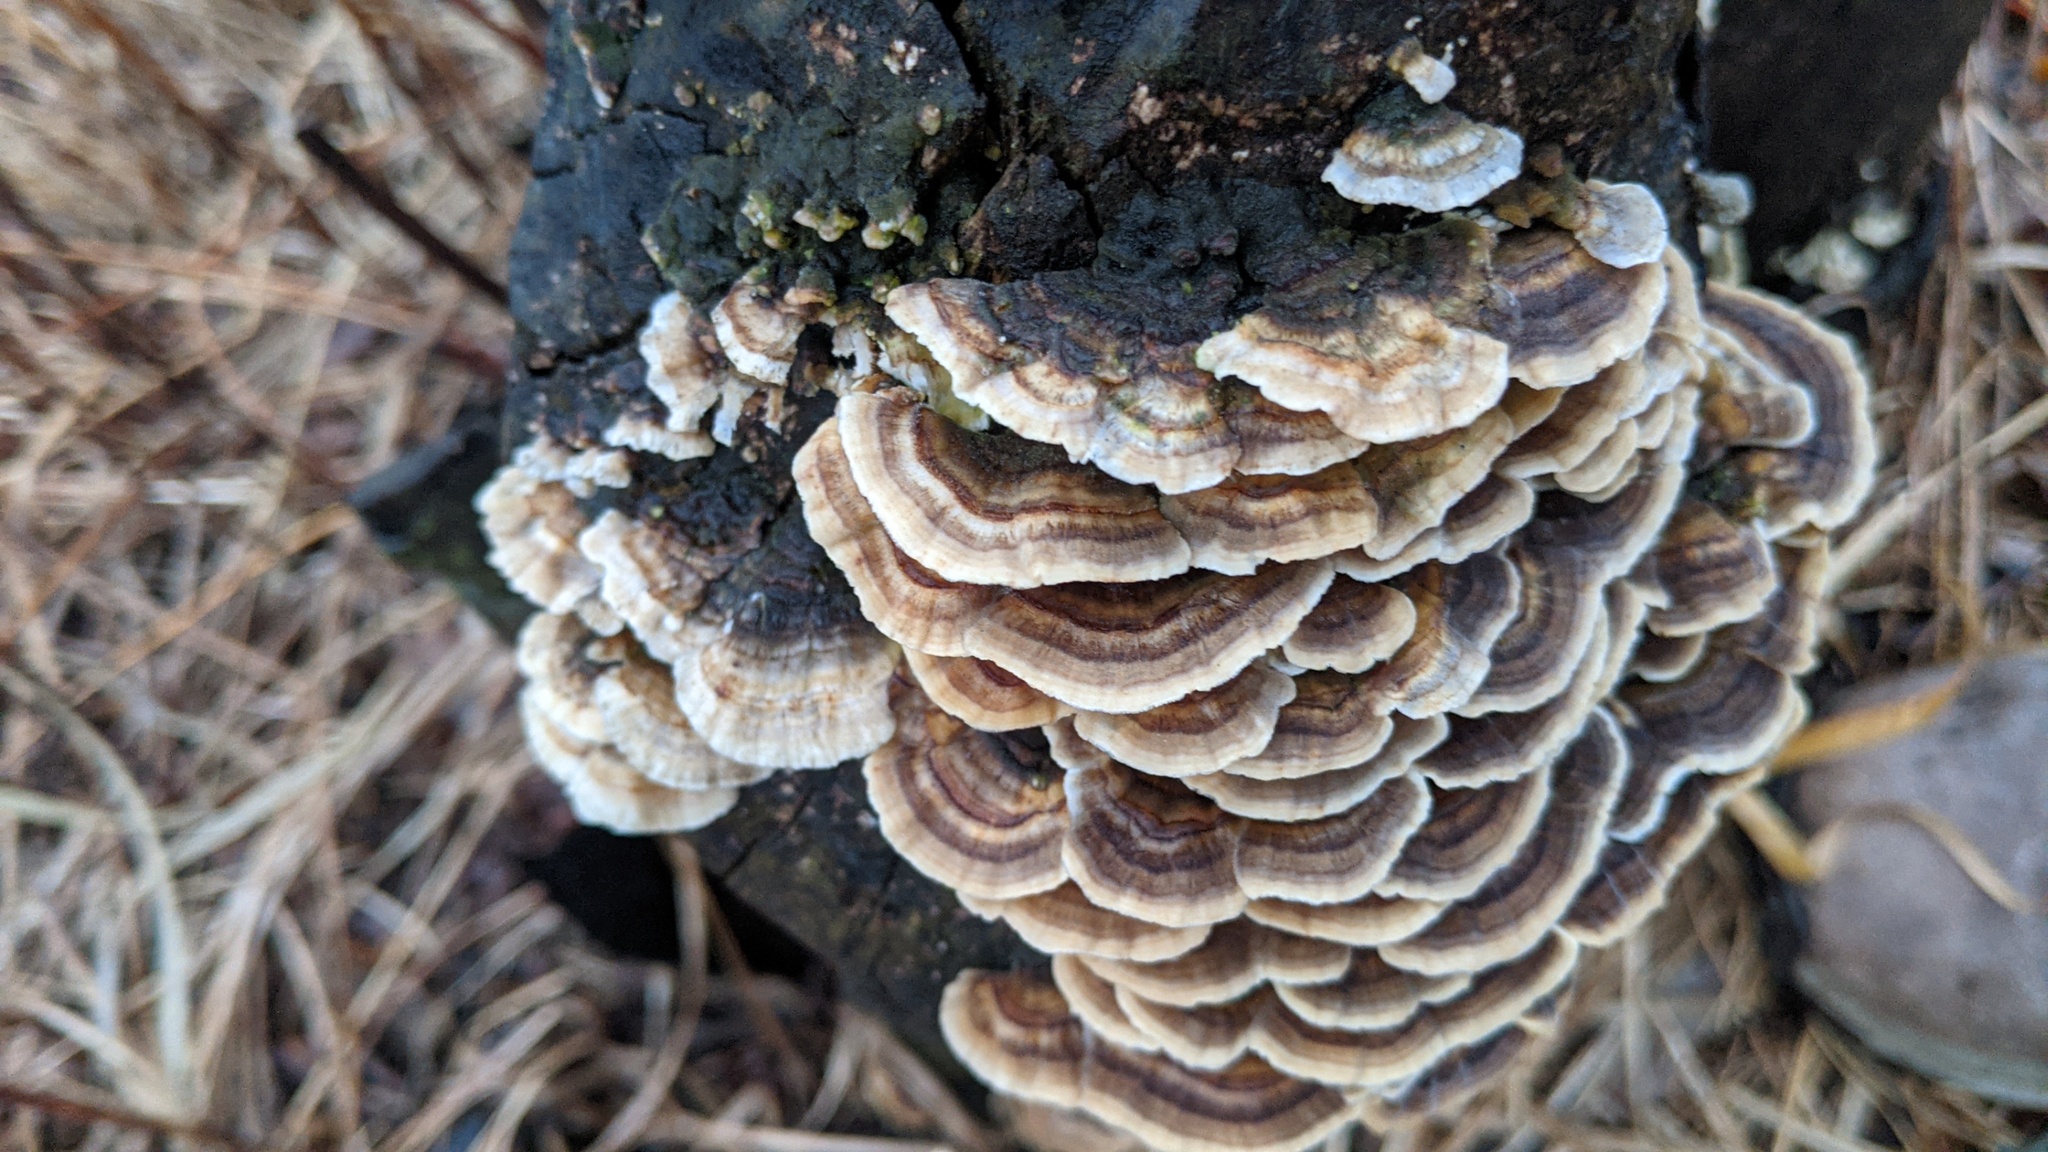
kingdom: Fungi
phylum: Basidiomycota
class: Agaricomycetes
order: Polyporales
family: Polyporaceae
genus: Trametes
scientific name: Trametes versicolor
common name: Turkeytail
